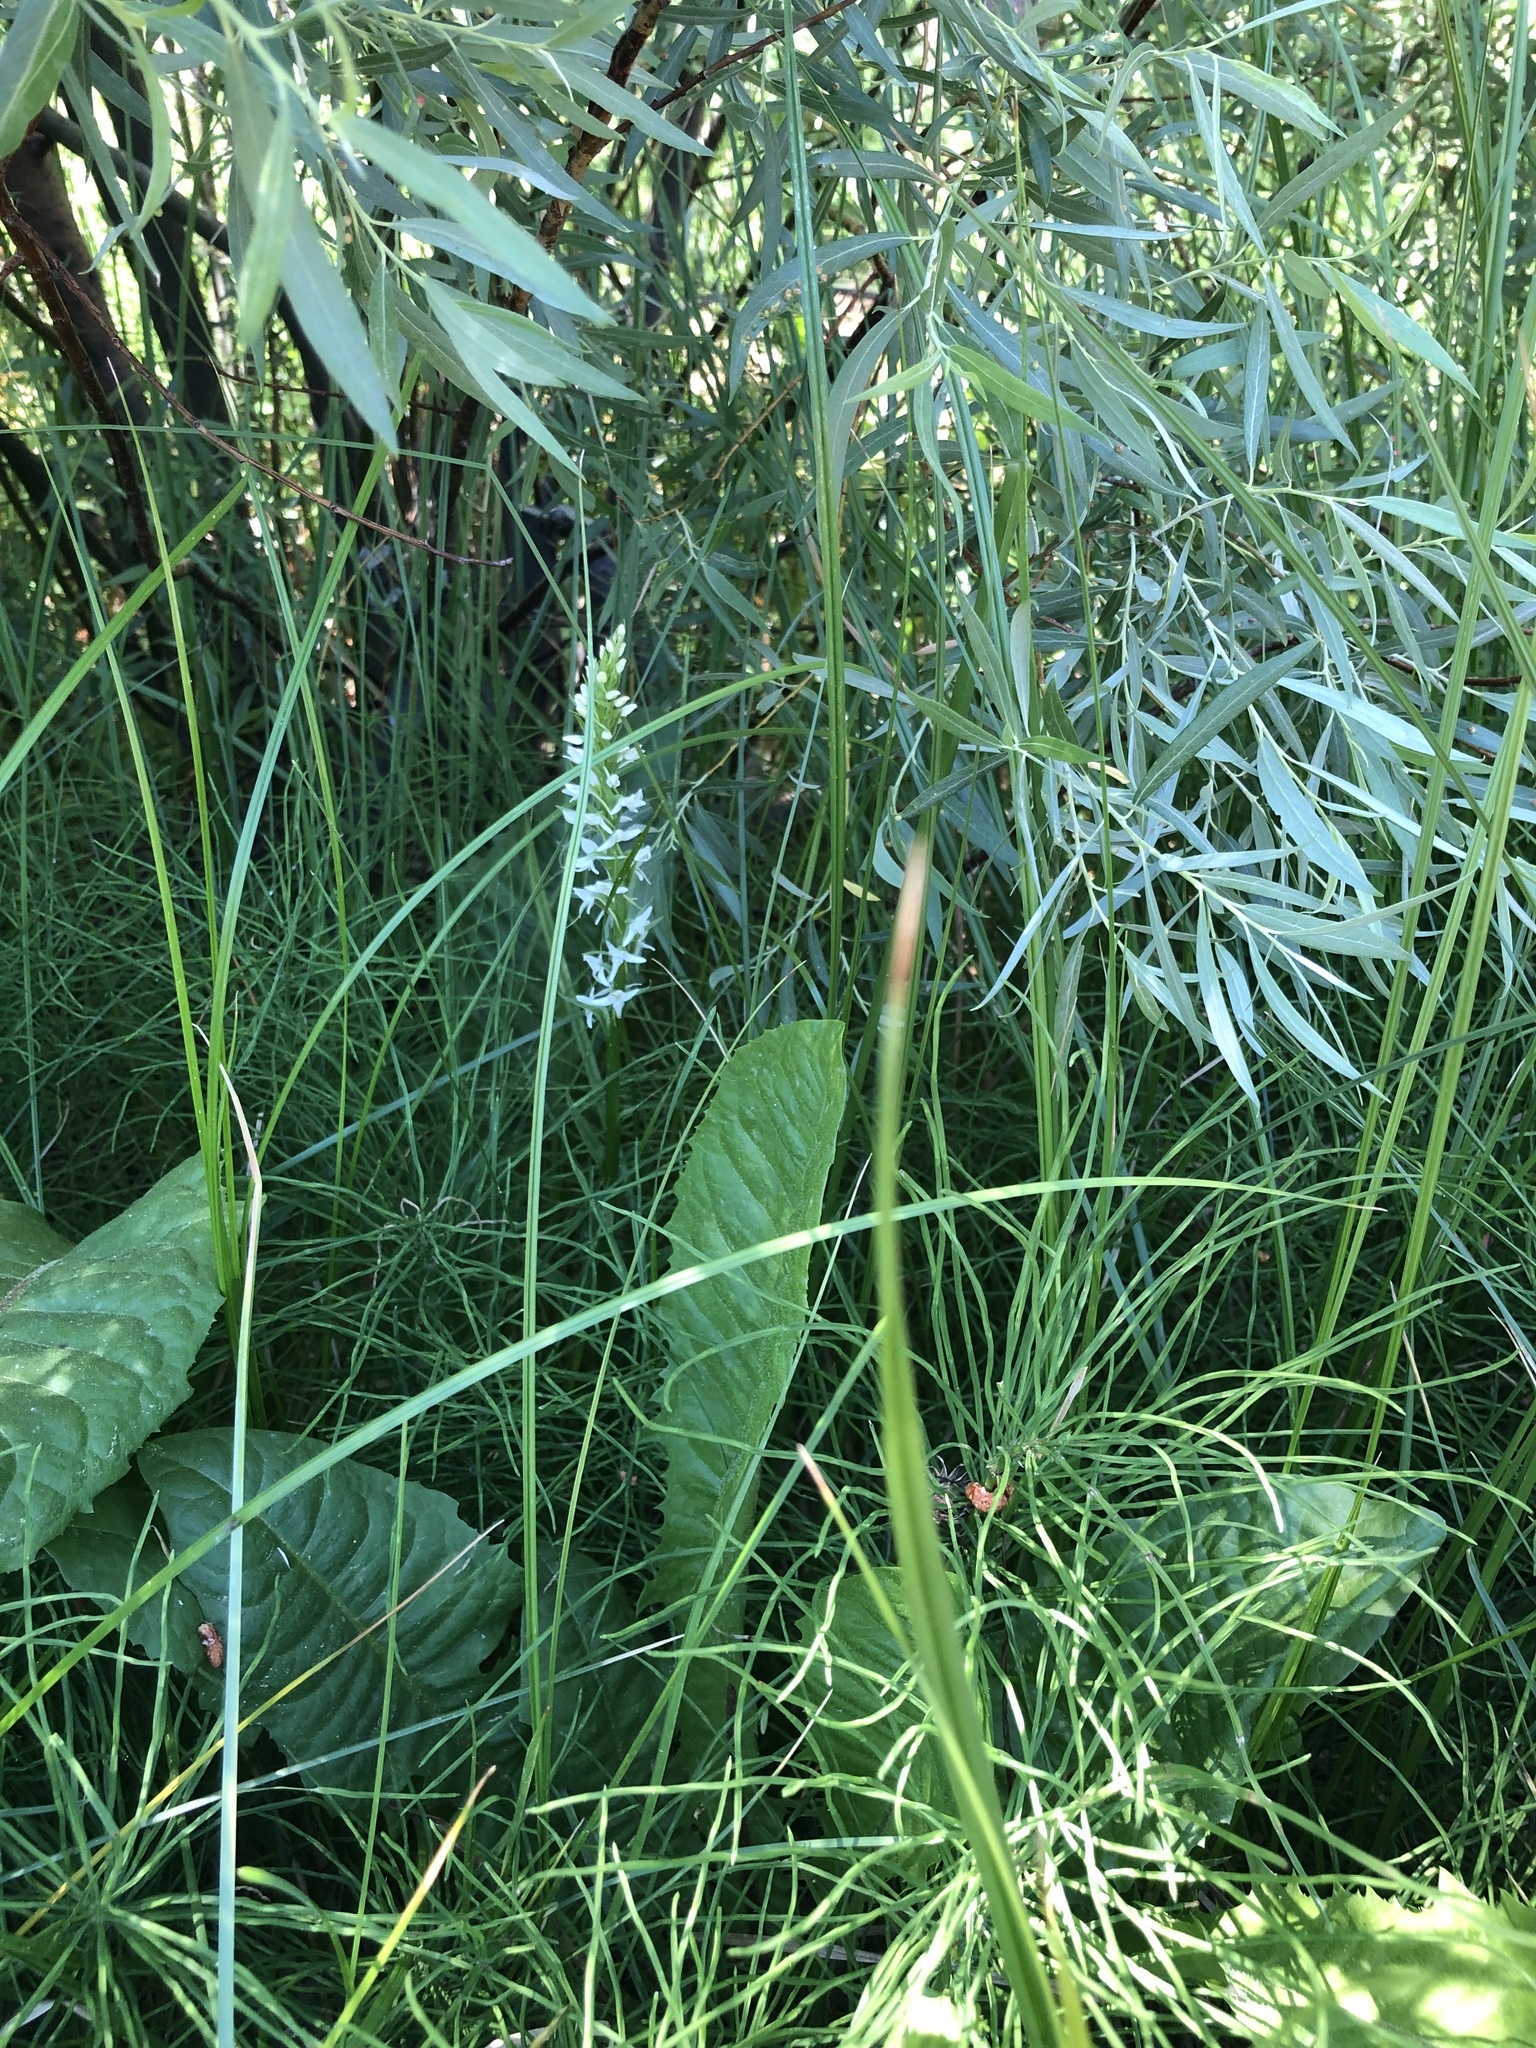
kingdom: Plantae
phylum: Tracheophyta
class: Liliopsida
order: Asparagales
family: Orchidaceae
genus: Platanthera
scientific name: Platanthera dilatata
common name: Bog candles
